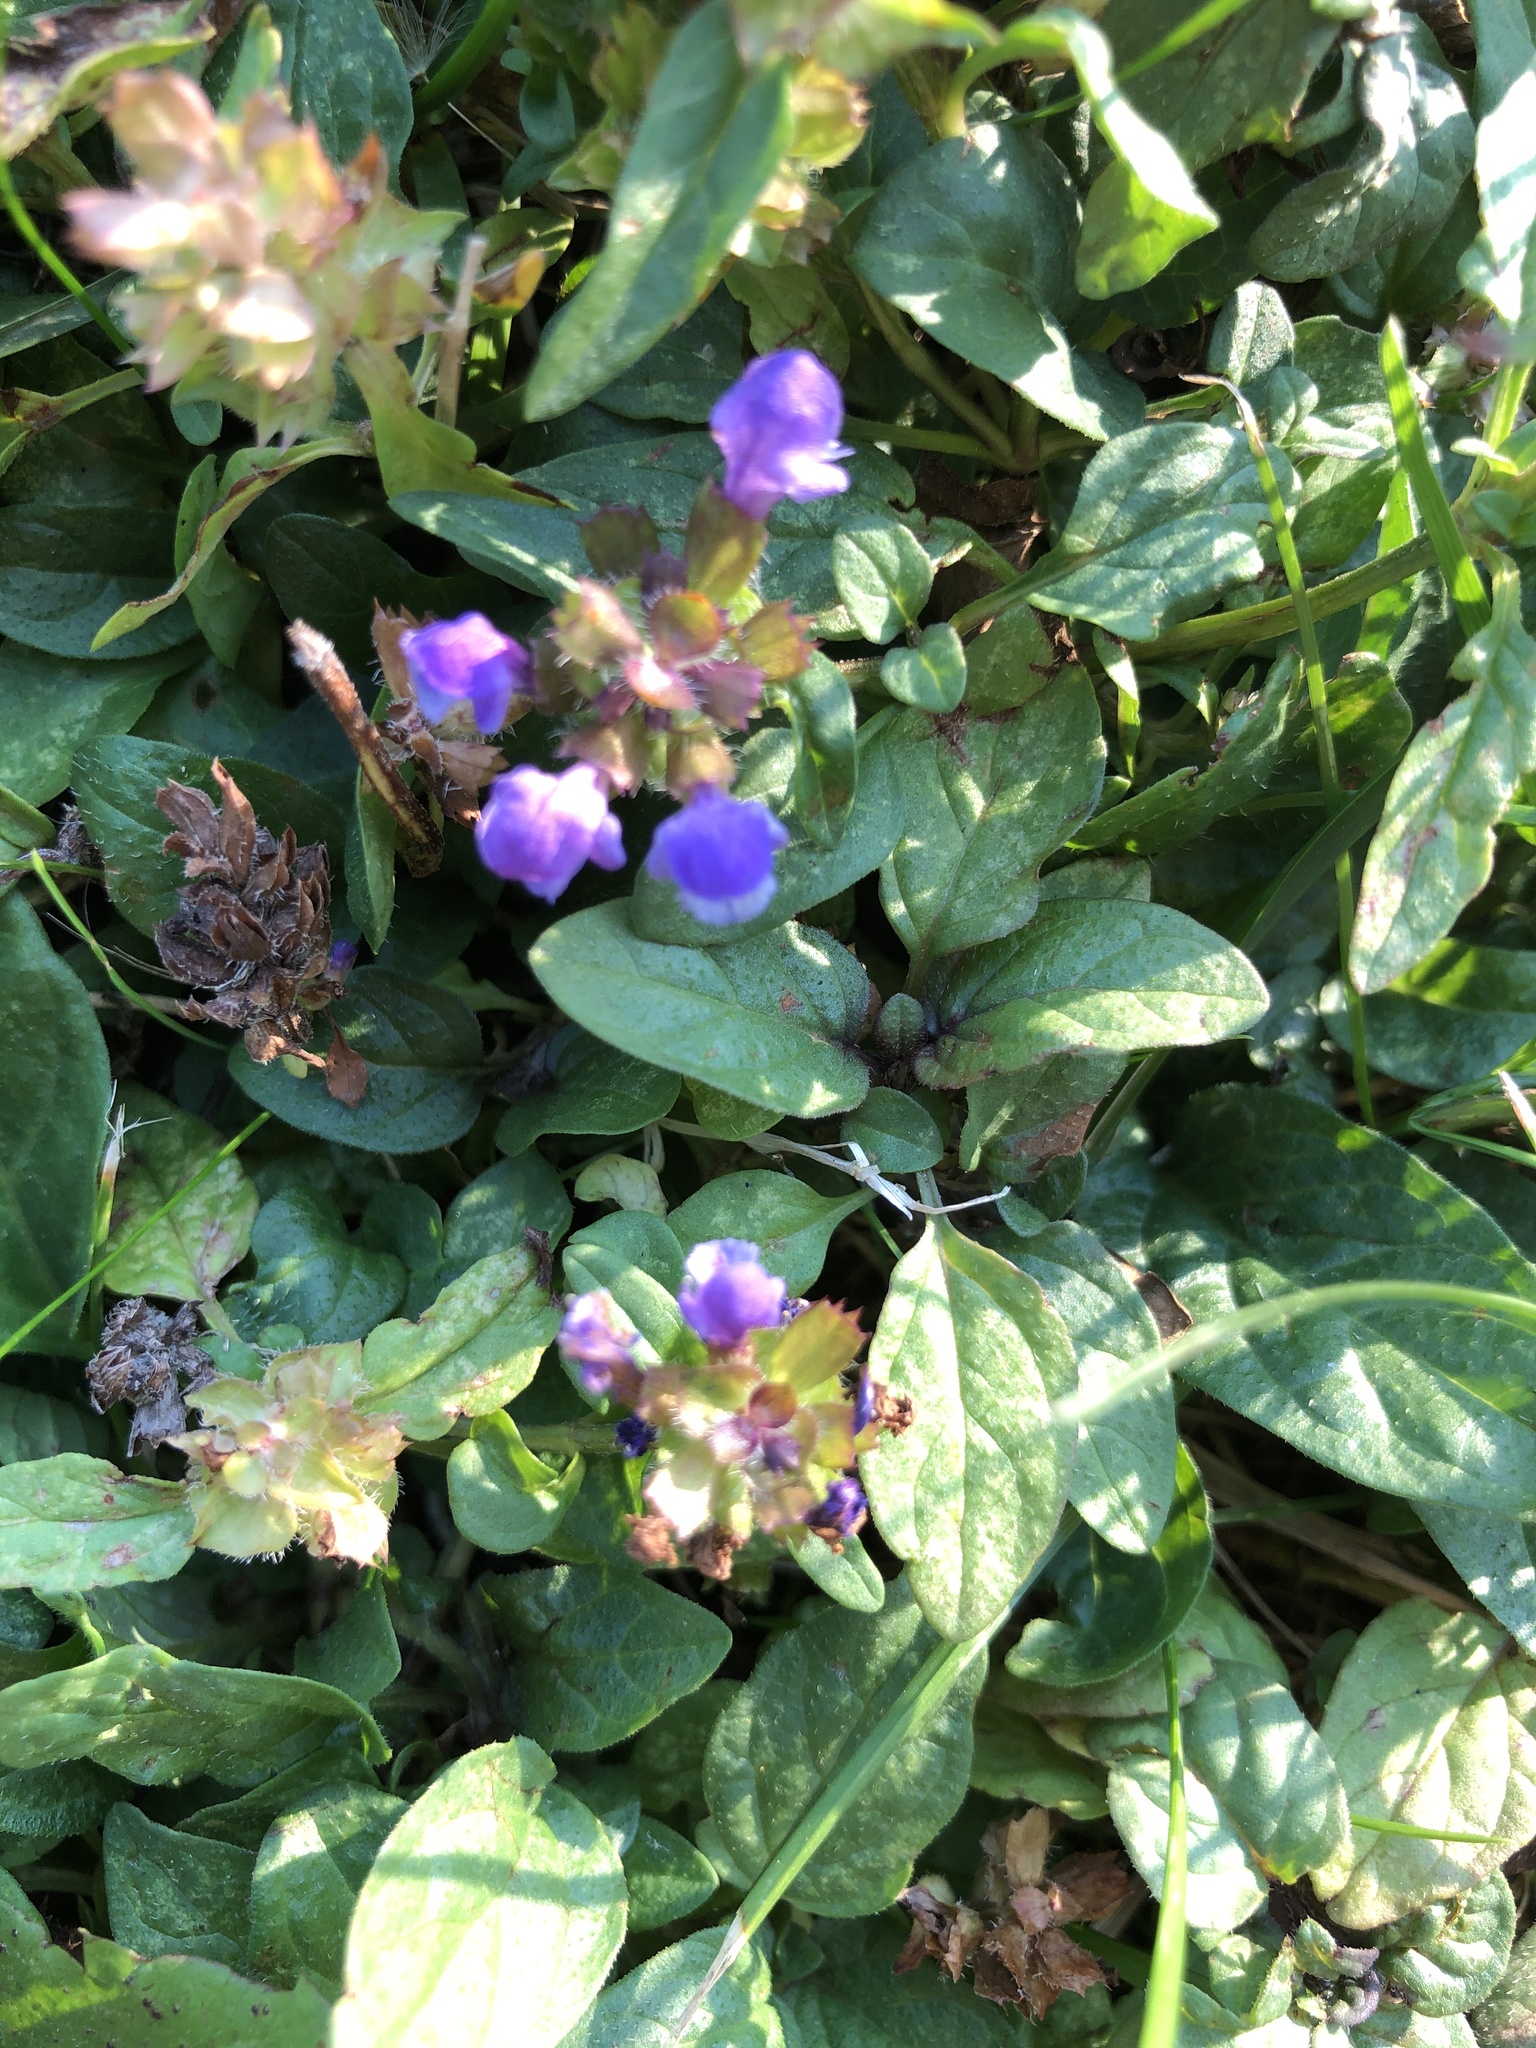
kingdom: Plantae
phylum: Tracheophyta
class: Magnoliopsida
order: Lamiales
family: Lamiaceae
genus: Prunella
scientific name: Prunella vulgaris
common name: Heal-all
